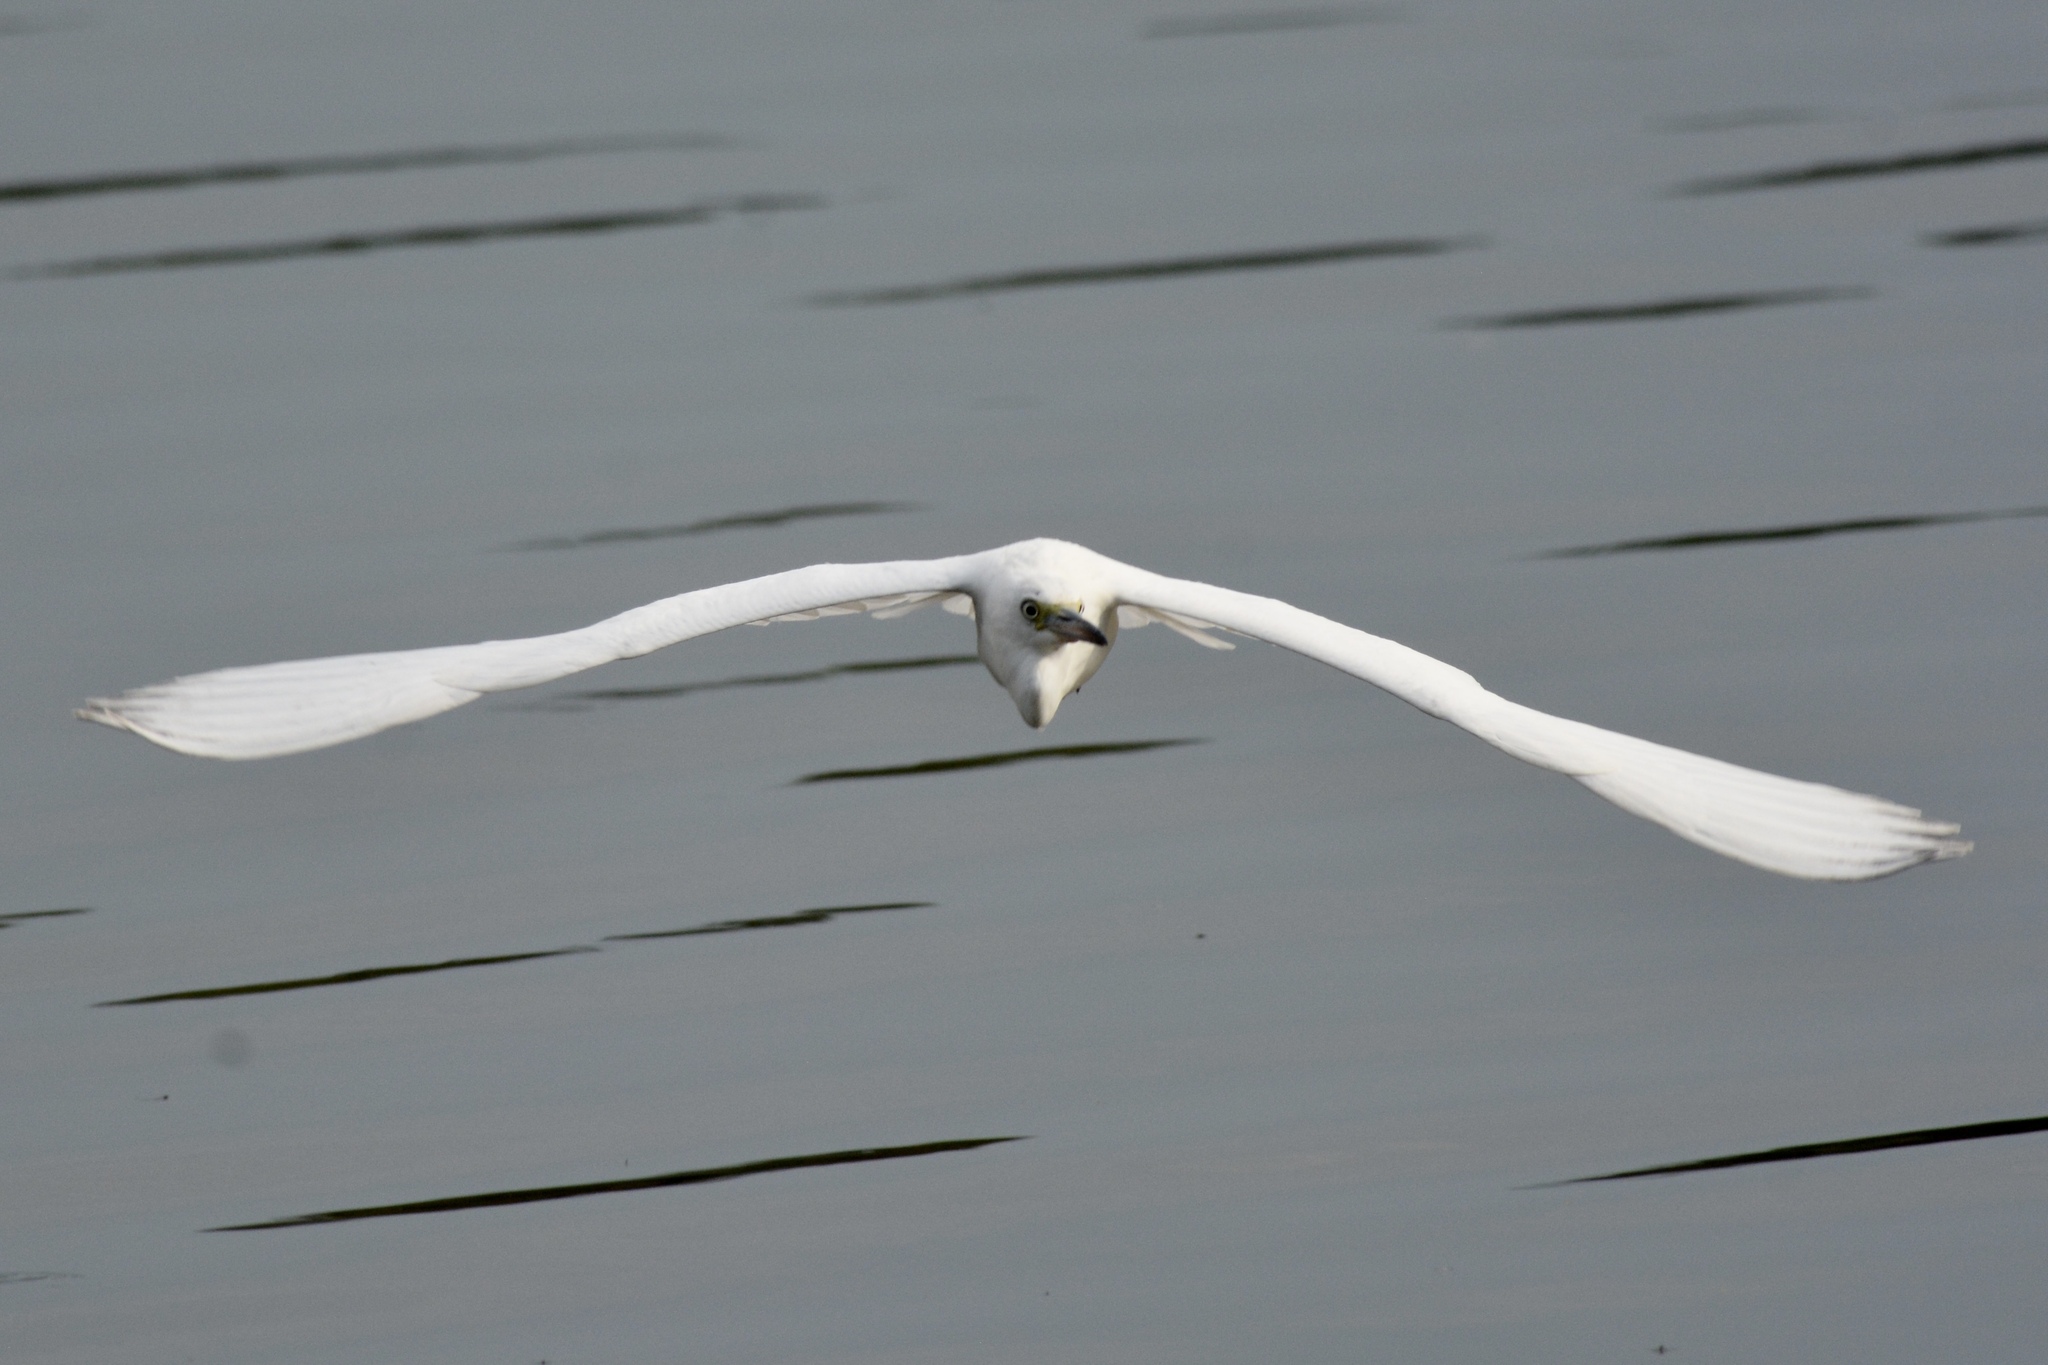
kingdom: Animalia
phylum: Chordata
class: Aves
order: Pelecaniformes
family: Ardeidae
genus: Egretta
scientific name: Egretta caerulea
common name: Little blue heron
